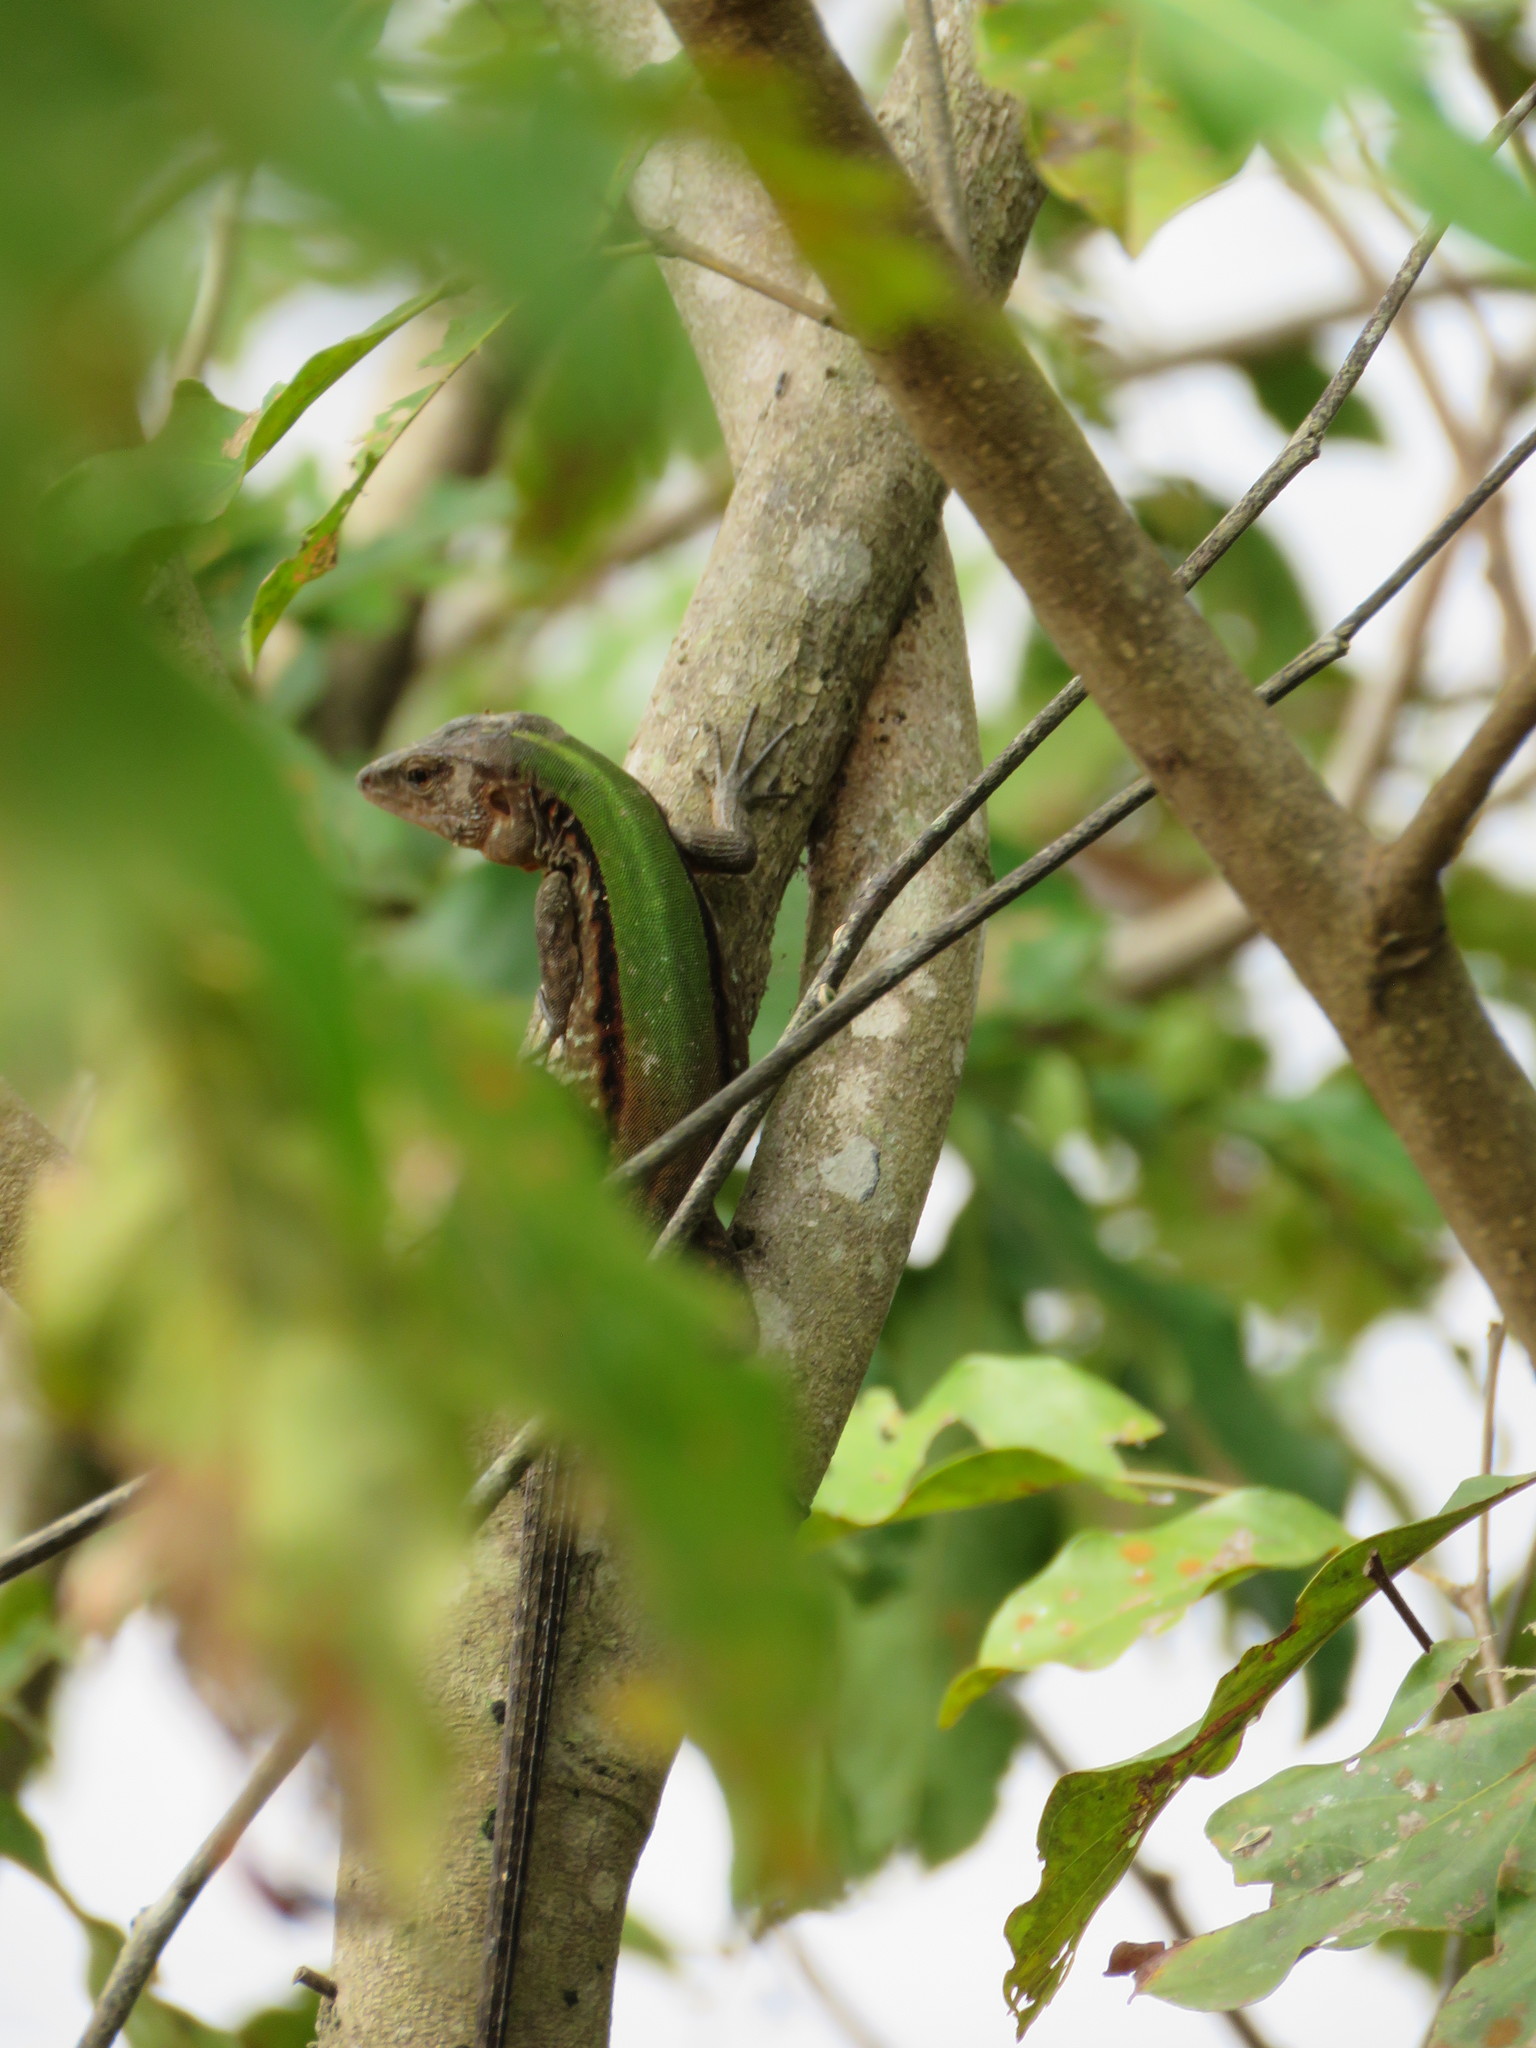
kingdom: Animalia
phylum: Chordata
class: Squamata
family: Teiidae
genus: Kentropyx
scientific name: Kentropyx altamazonica
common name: Cocha whiptail
